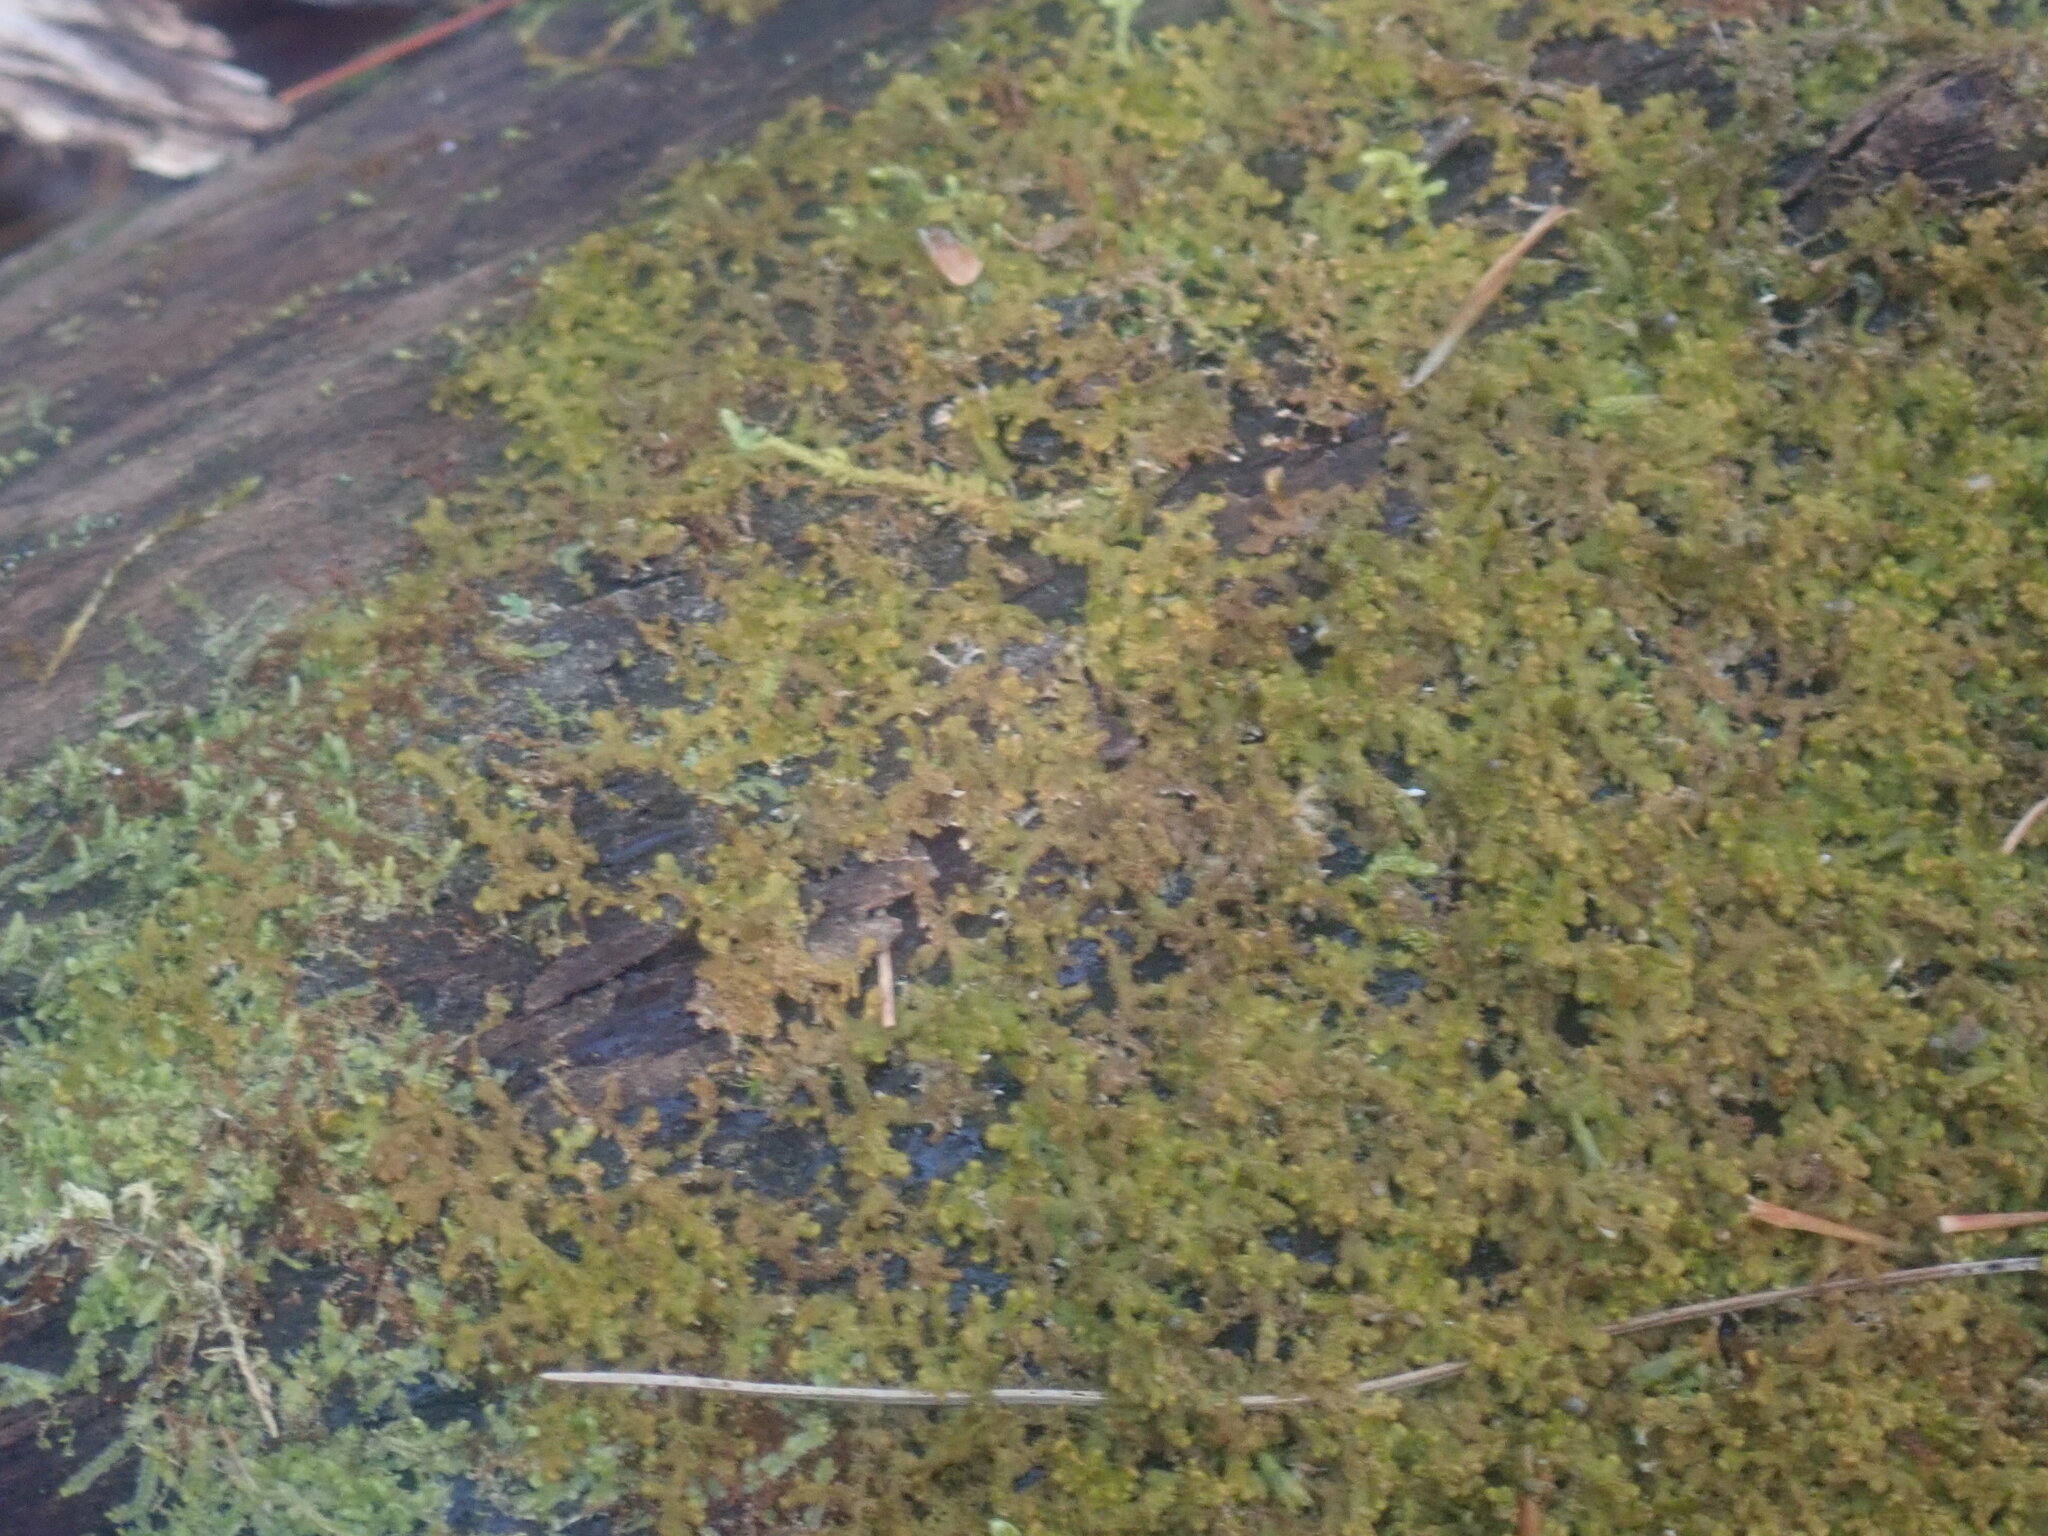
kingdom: Plantae
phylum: Marchantiophyta
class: Jungermanniopsida
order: Ptilidiales
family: Ptilidiaceae
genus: Ptilidium
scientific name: Ptilidium pulcherrimum
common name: Tree fringewort
